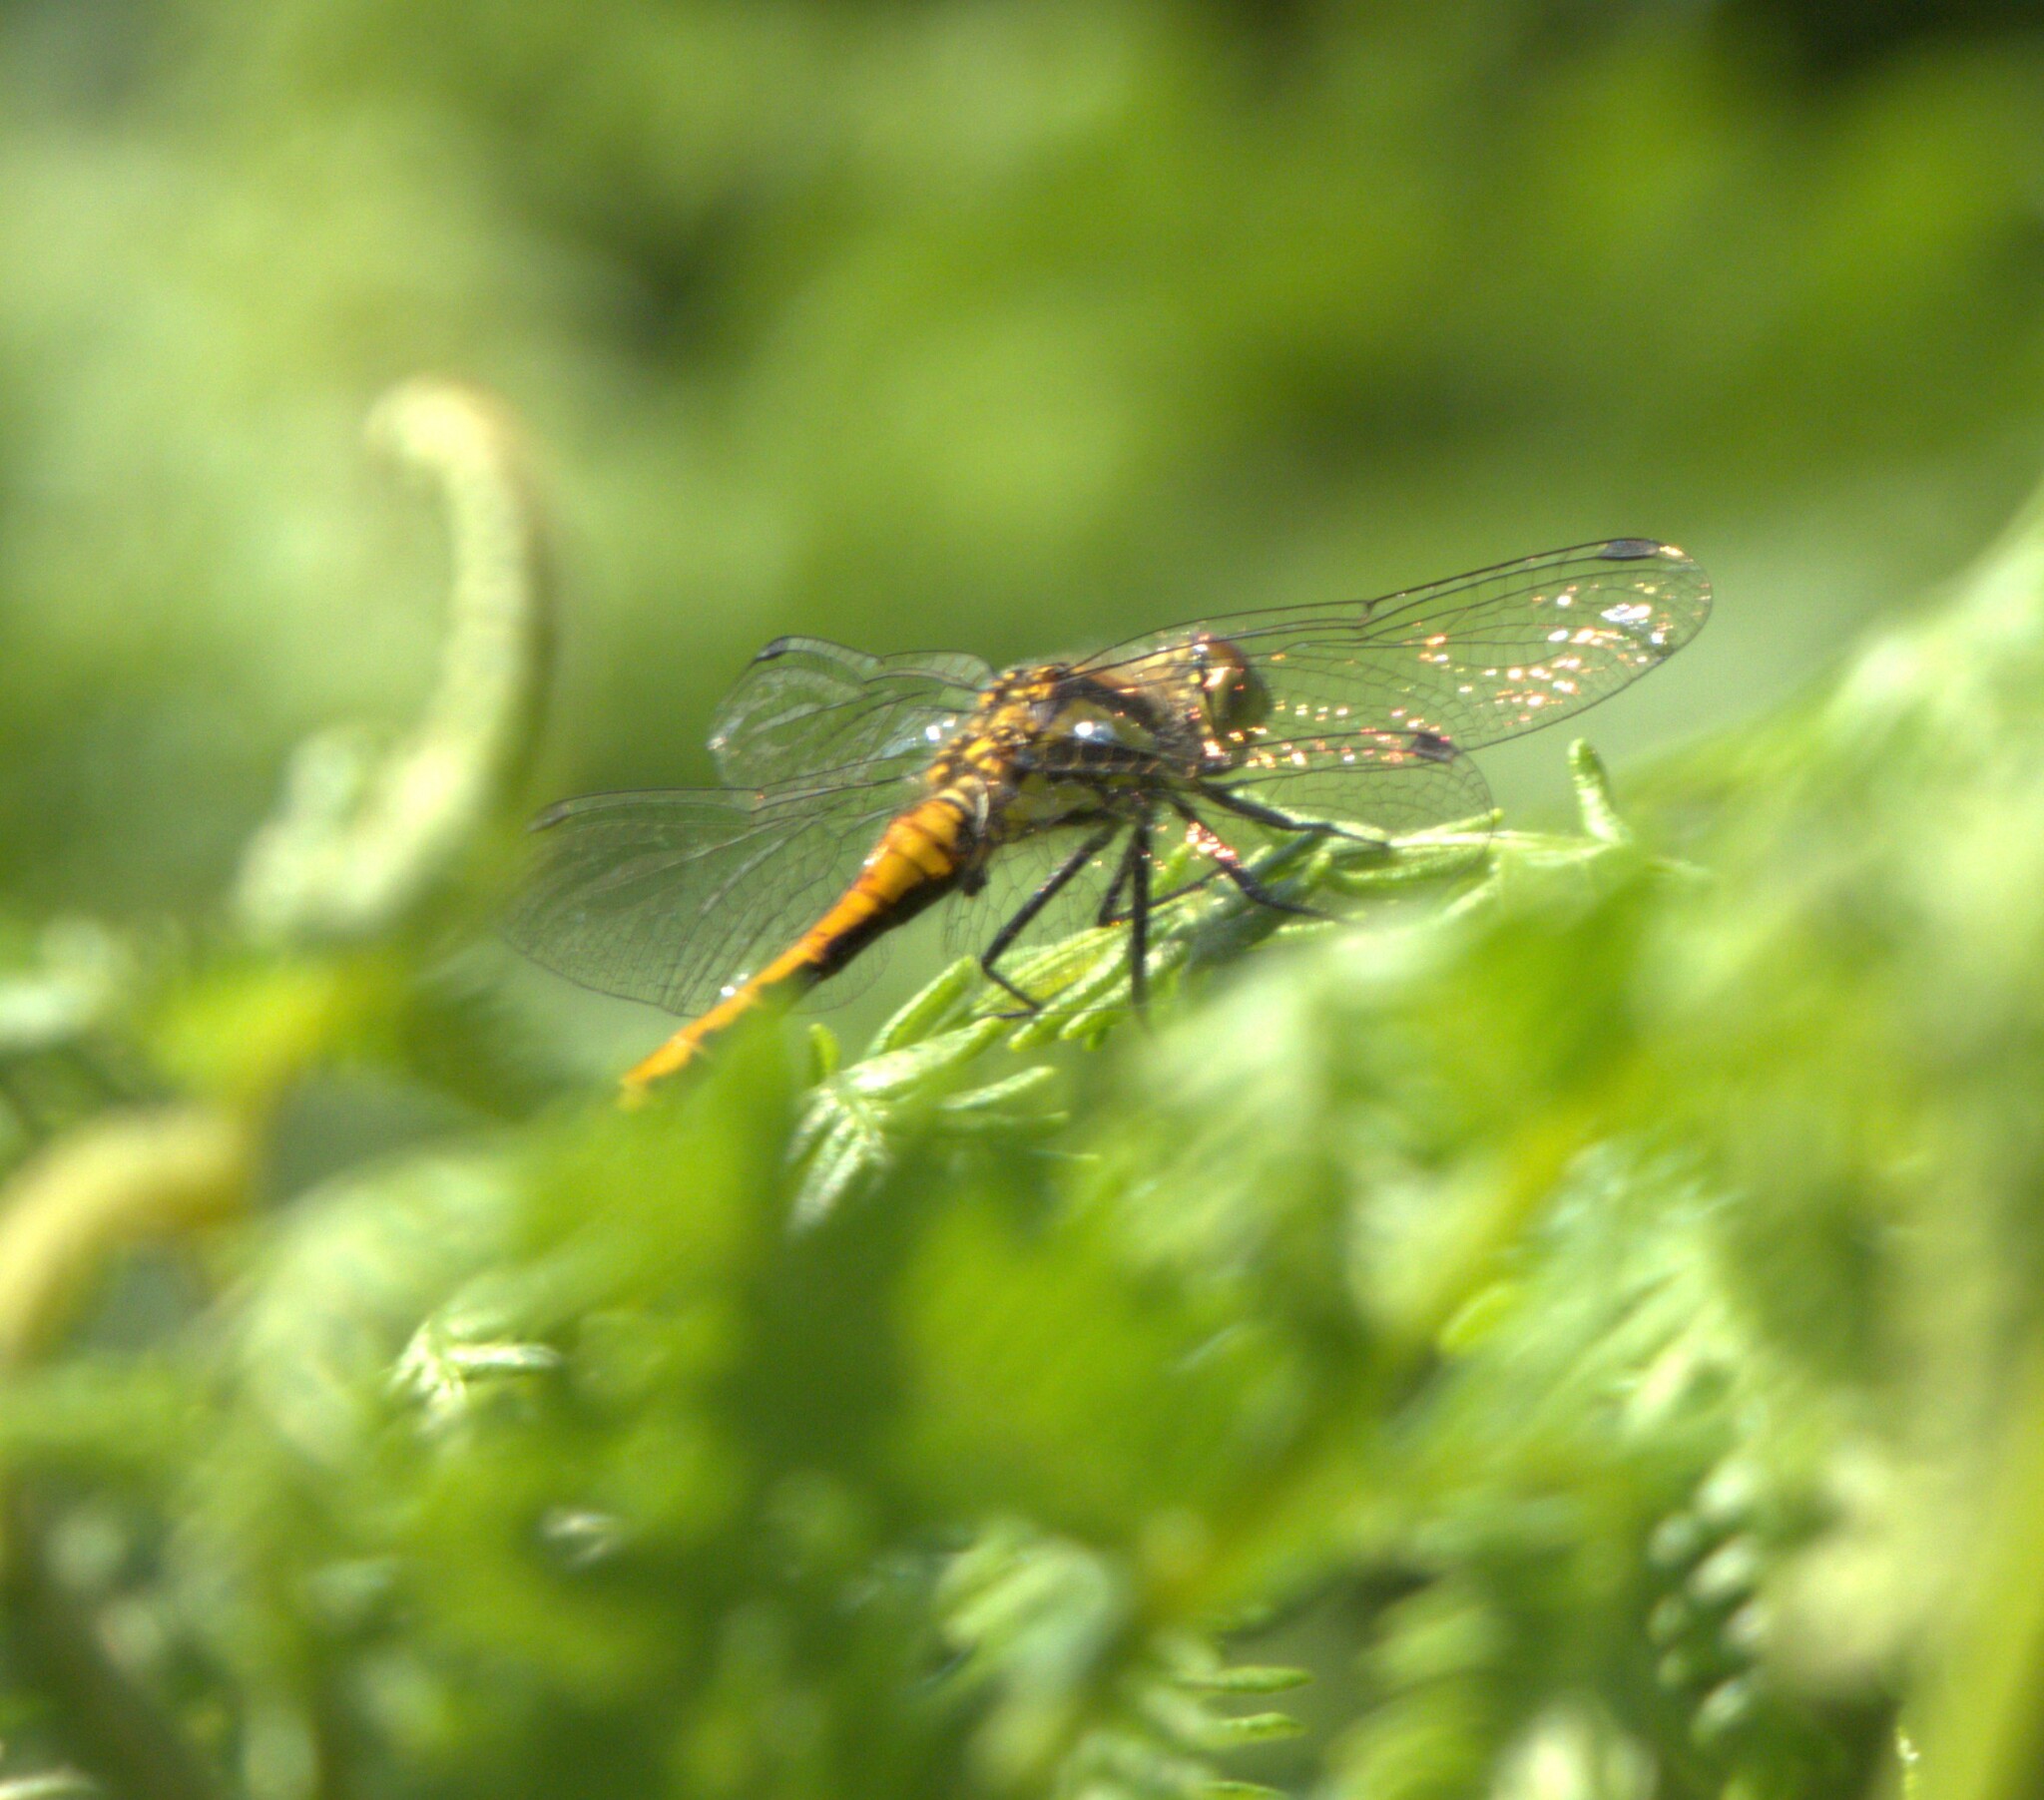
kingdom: Animalia
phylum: Arthropoda
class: Insecta
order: Odonata
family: Libellulidae
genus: Sympetrum
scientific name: Sympetrum danae
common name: Black darter
